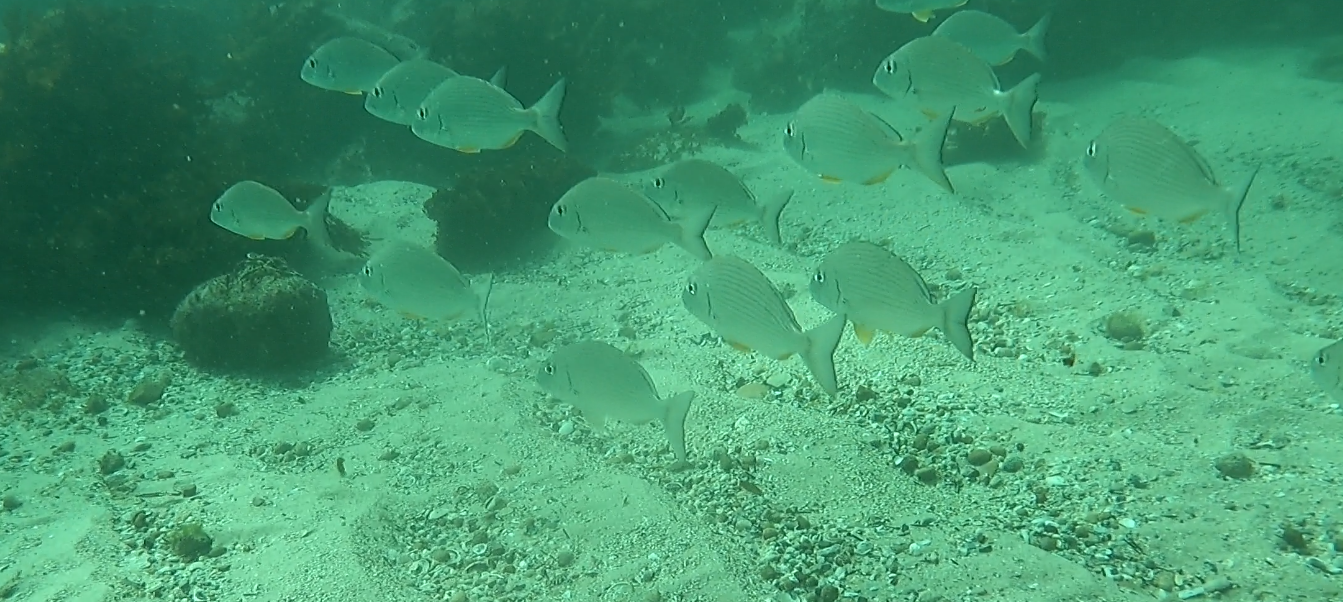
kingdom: Animalia
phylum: Chordata
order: Perciformes
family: Sparidae
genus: Rhabdosargus
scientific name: Rhabdosargus sarba
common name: Goldlined seabream
